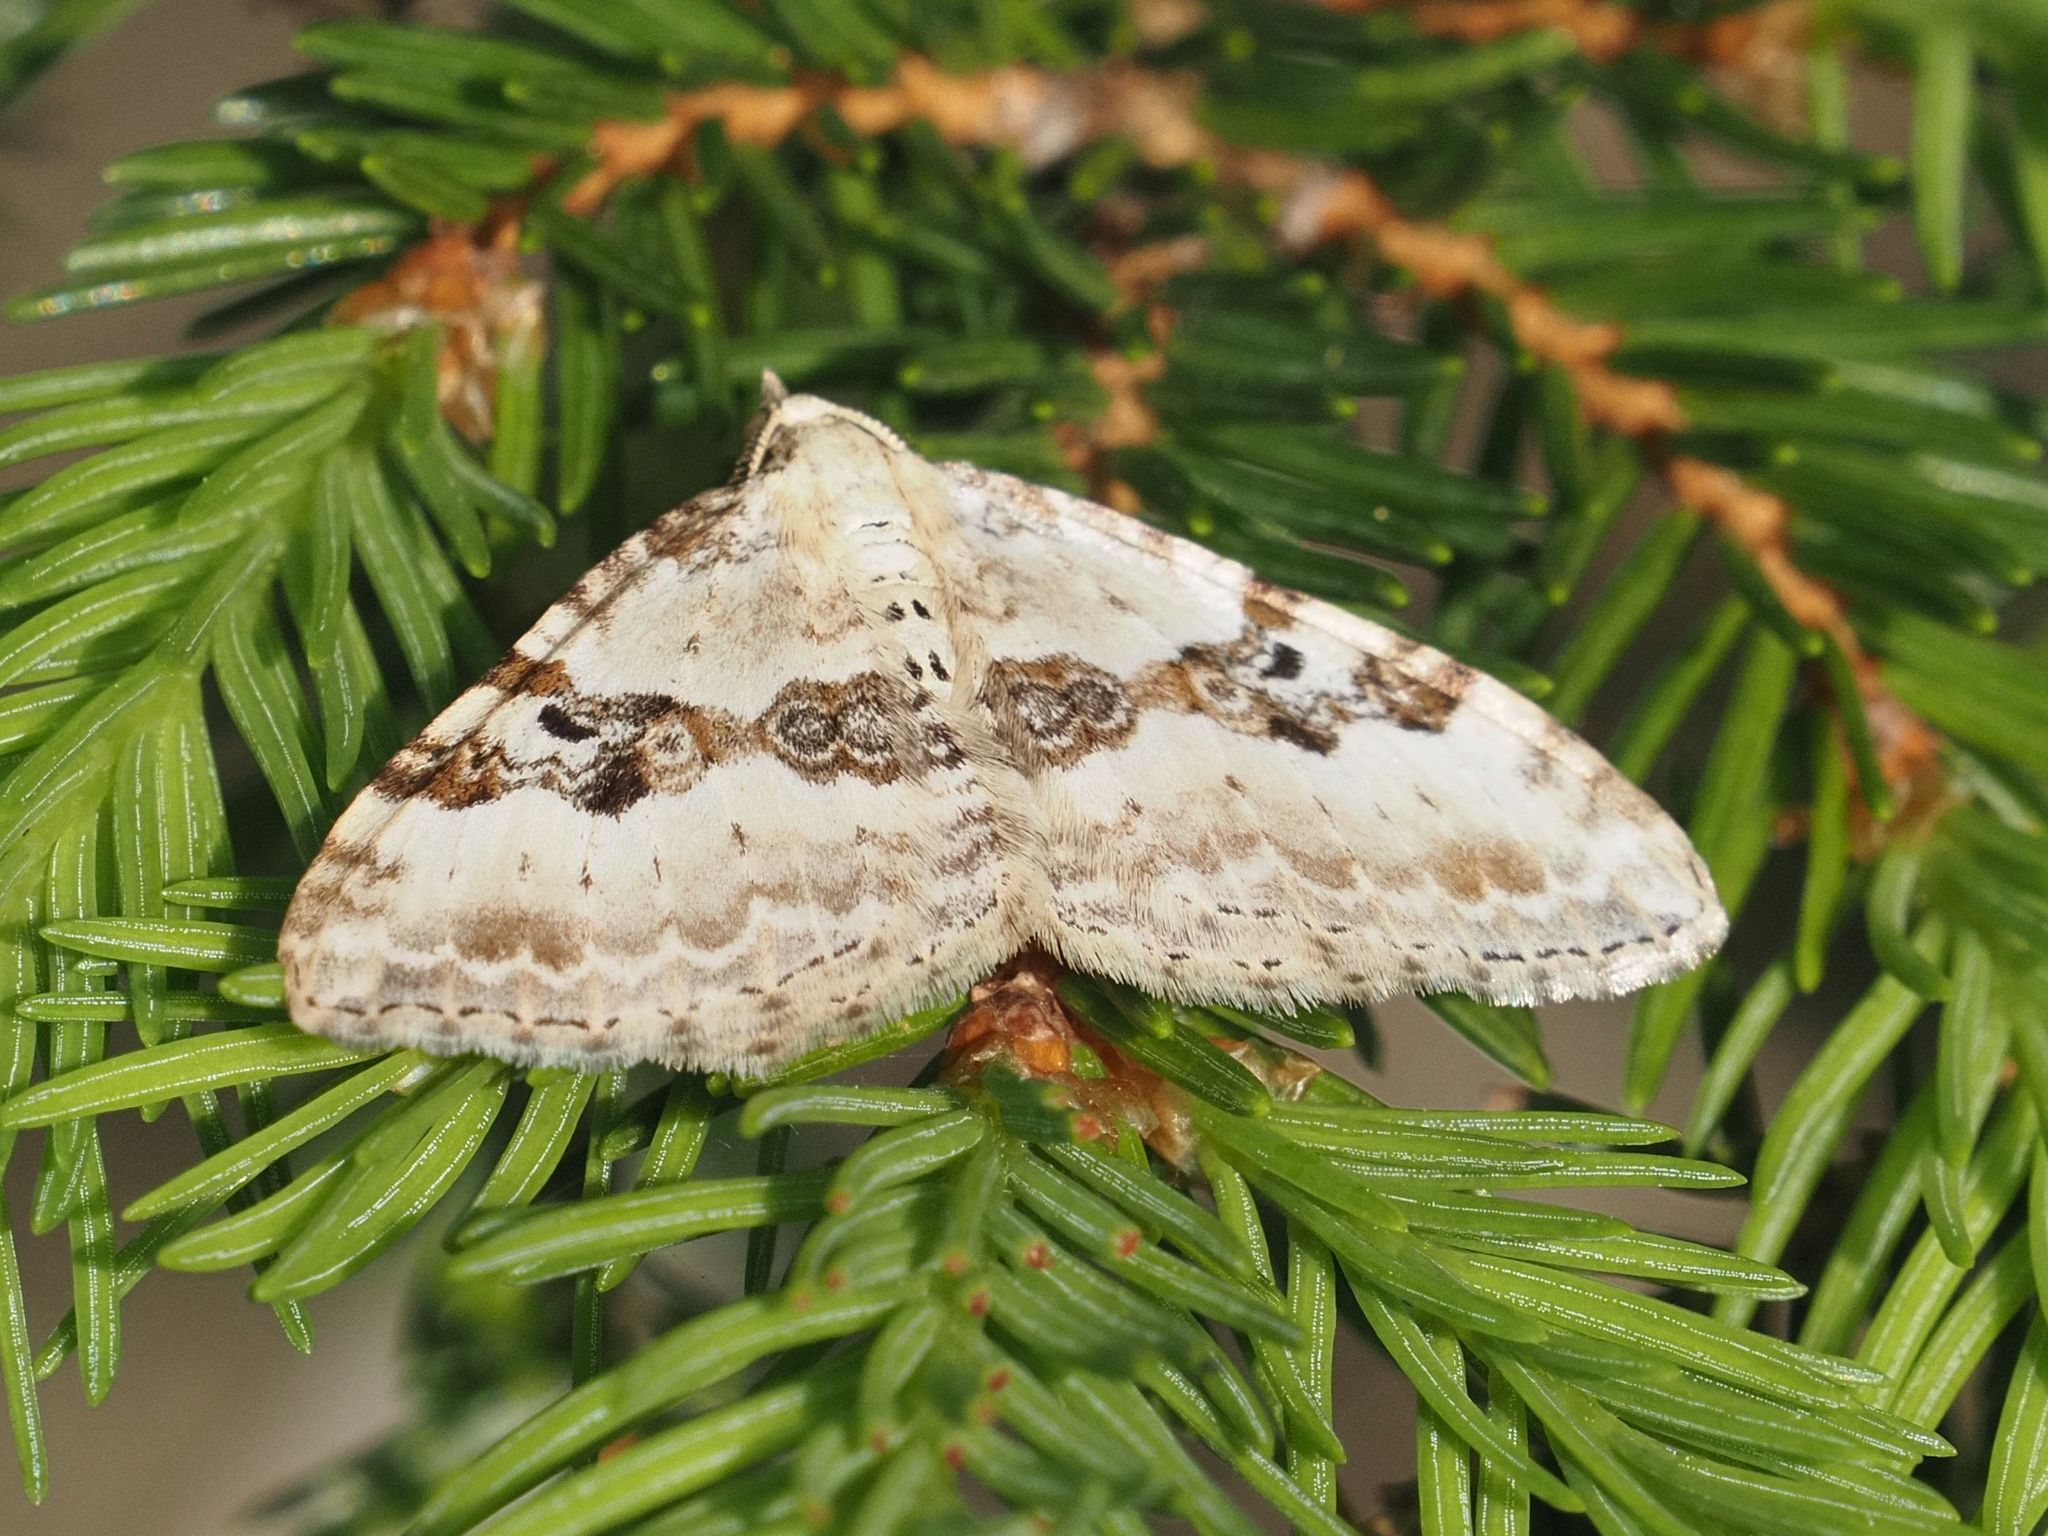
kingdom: Animalia
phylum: Arthropoda
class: Insecta
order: Lepidoptera
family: Geometridae
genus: Xanthorhoe
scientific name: Xanthorhoe montanata
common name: Silver-ground carpet
